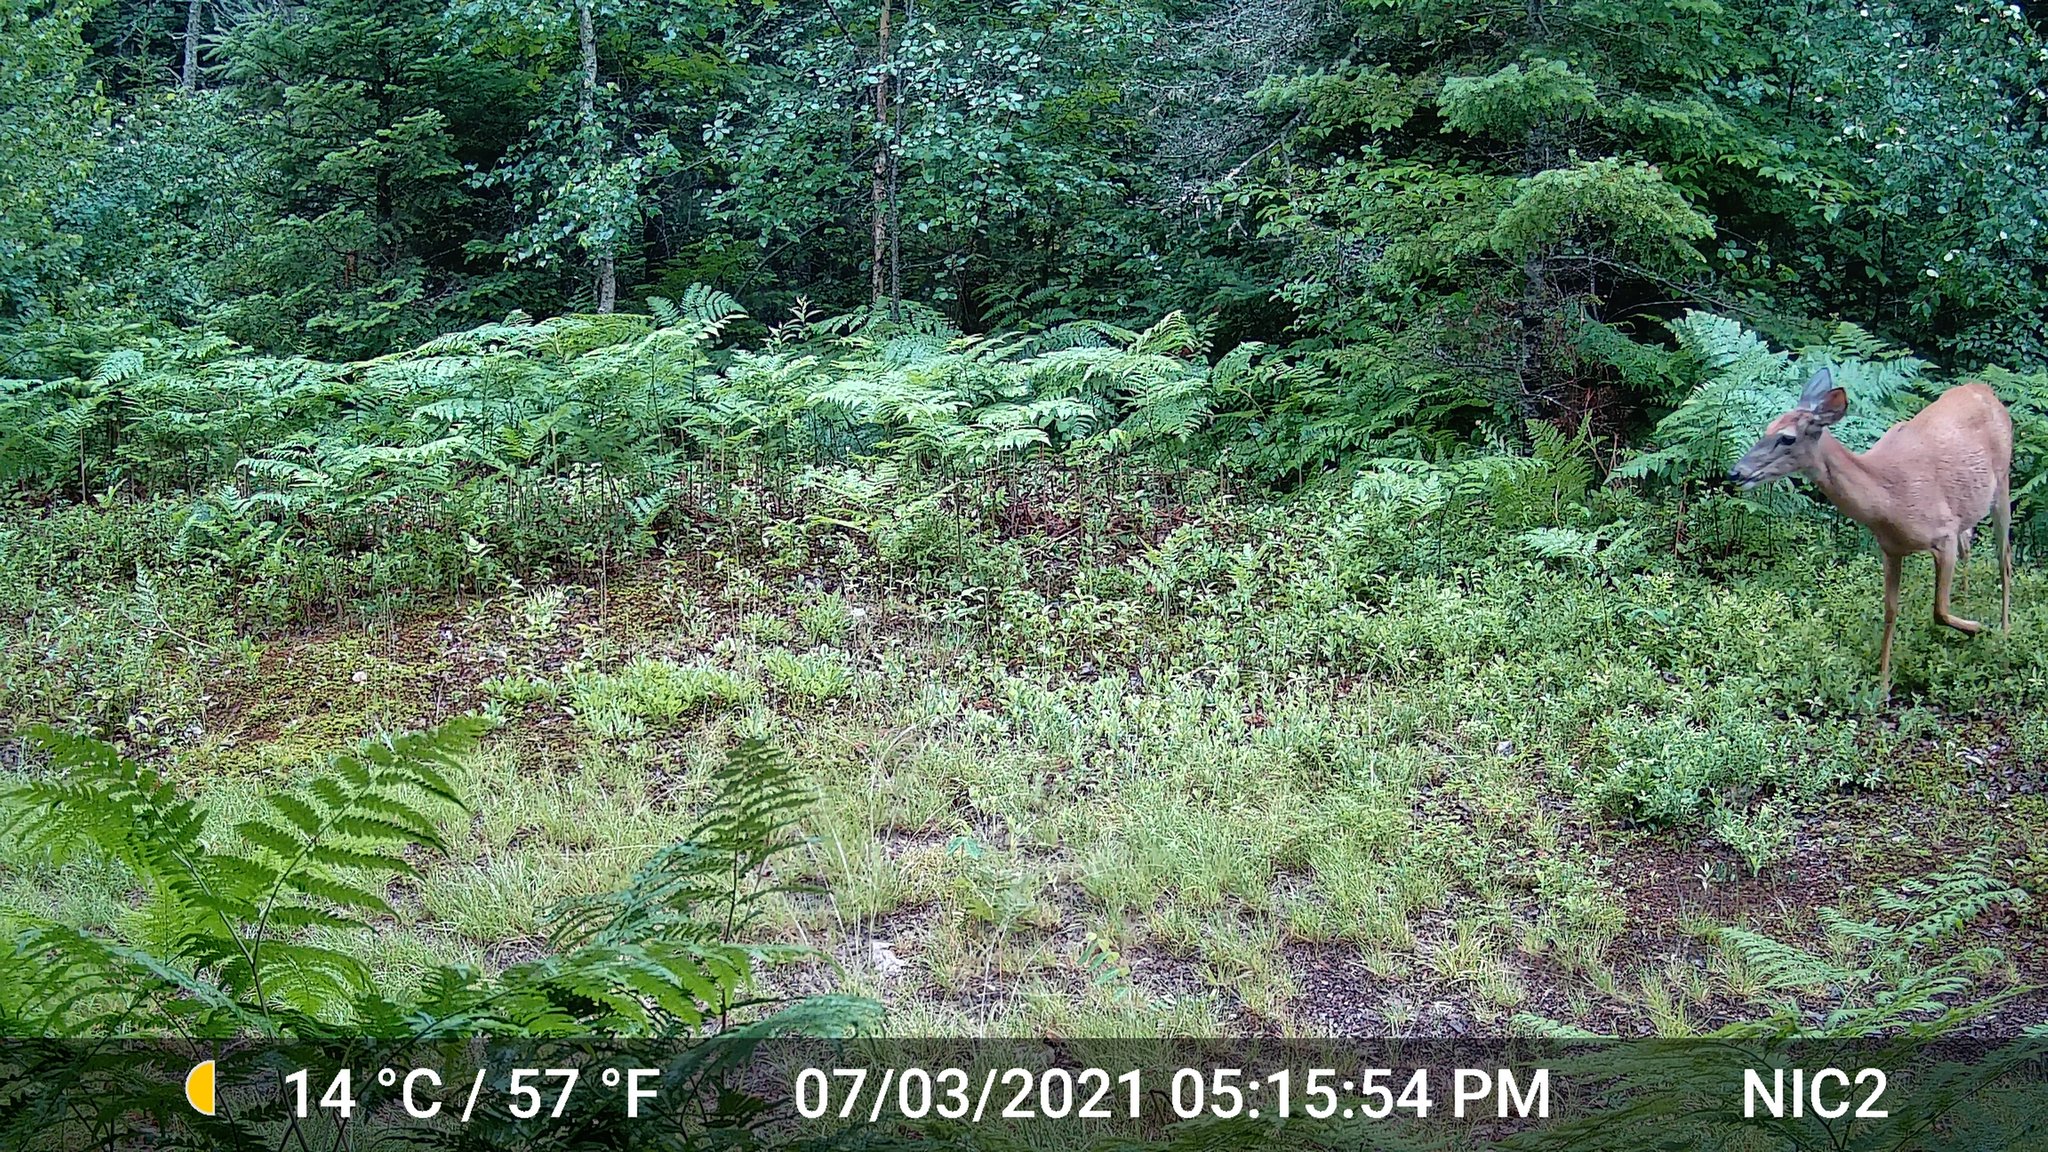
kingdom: Animalia
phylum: Chordata
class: Mammalia
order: Artiodactyla
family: Cervidae
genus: Odocoileus
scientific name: Odocoileus virginianus
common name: White-tailed deer
